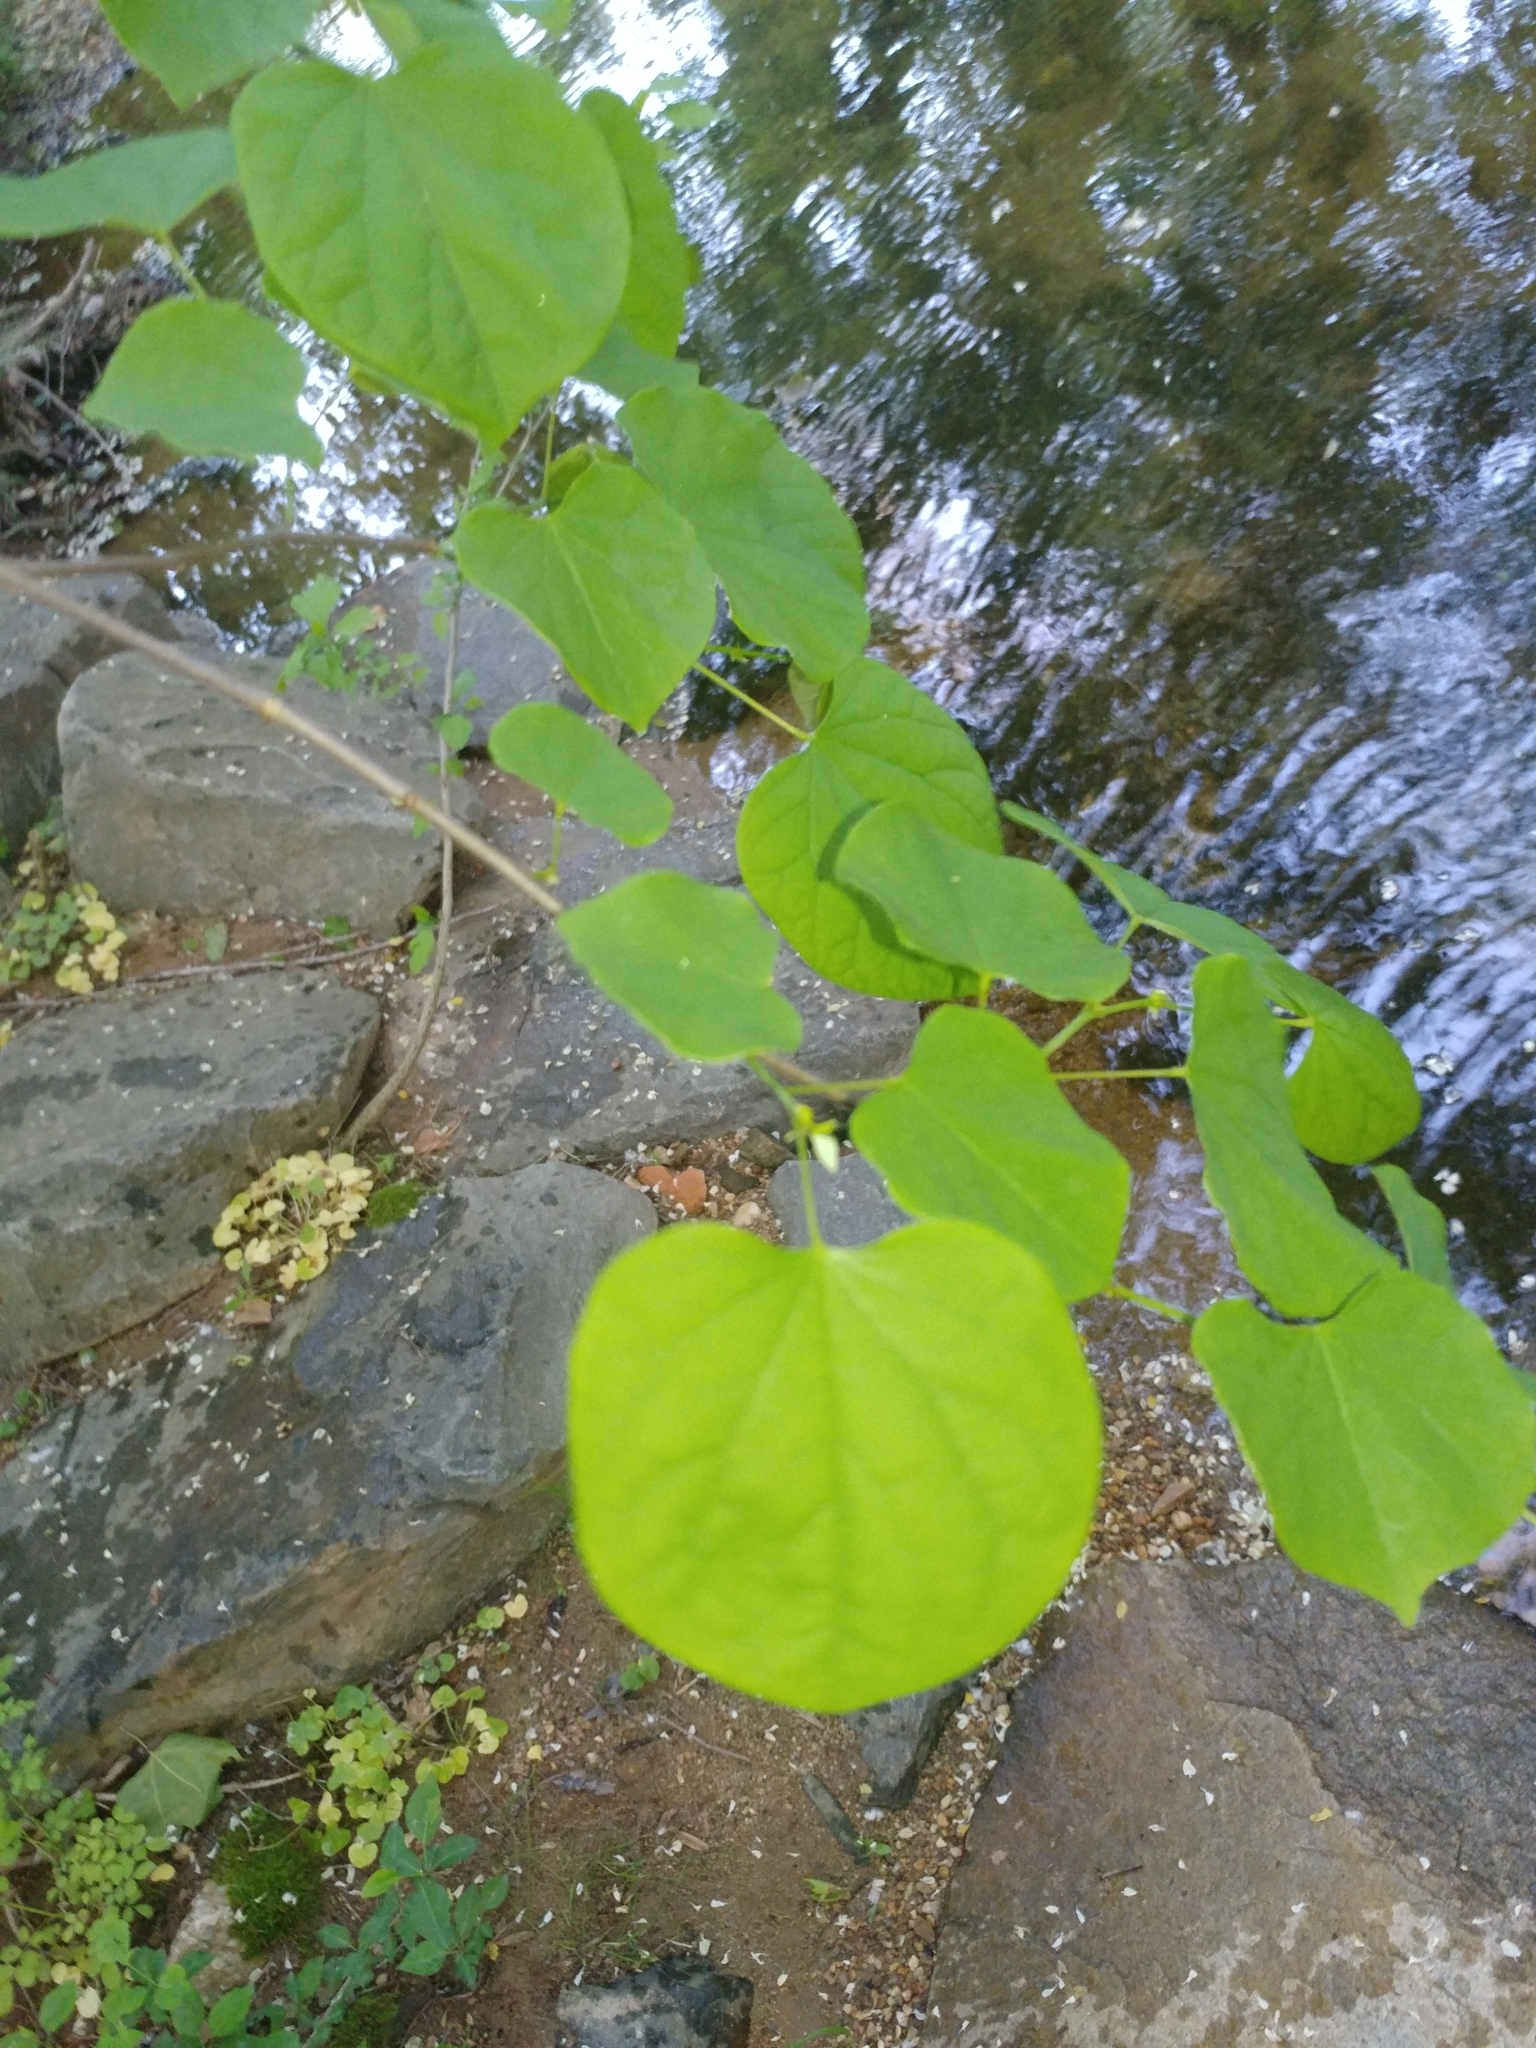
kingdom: Plantae
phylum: Tracheophyta
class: Magnoliopsida
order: Fabales
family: Fabaceae
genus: Cercis
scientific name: Cercis canadensis
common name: Eastern redbud
